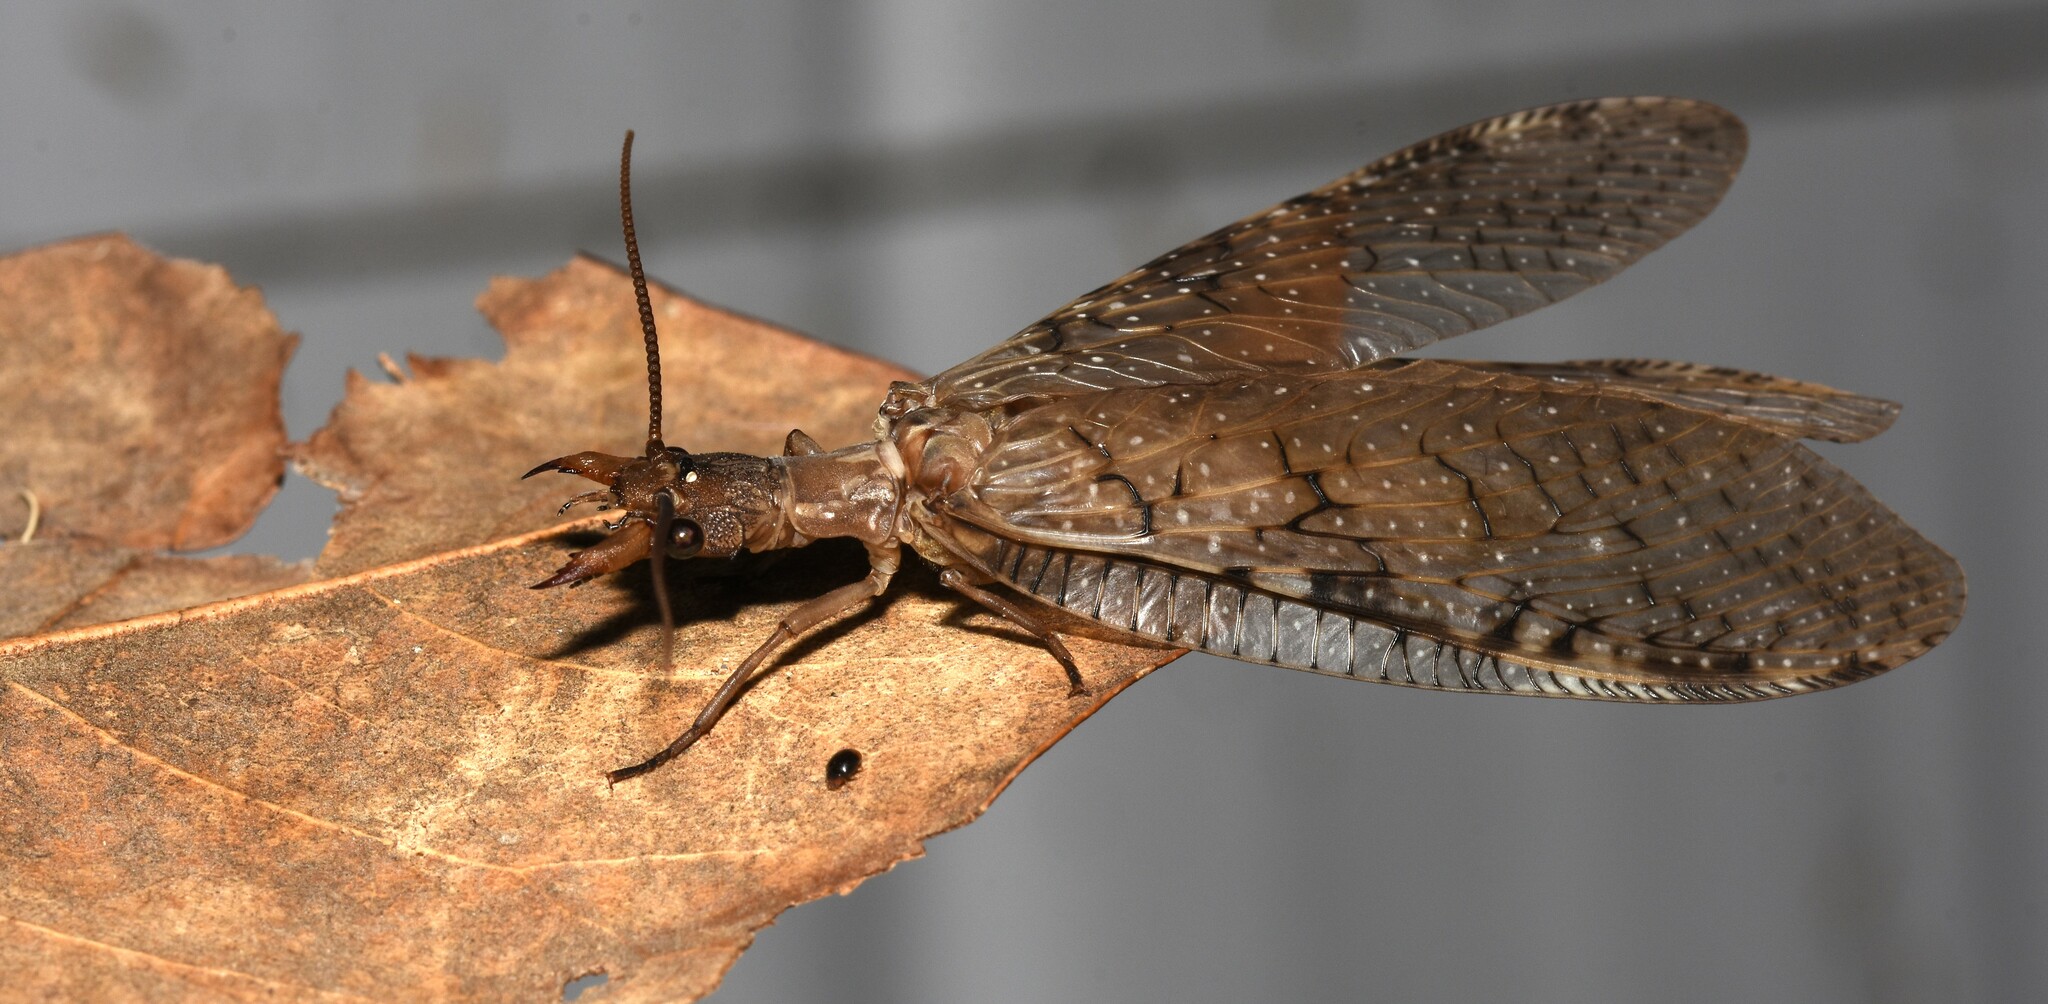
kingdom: Animalia
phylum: Arthropoda
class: Insecta
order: Megaloptera
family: Corydalidae
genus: Corydalus
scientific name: Corydalus cornutus
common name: Dobsonfly
